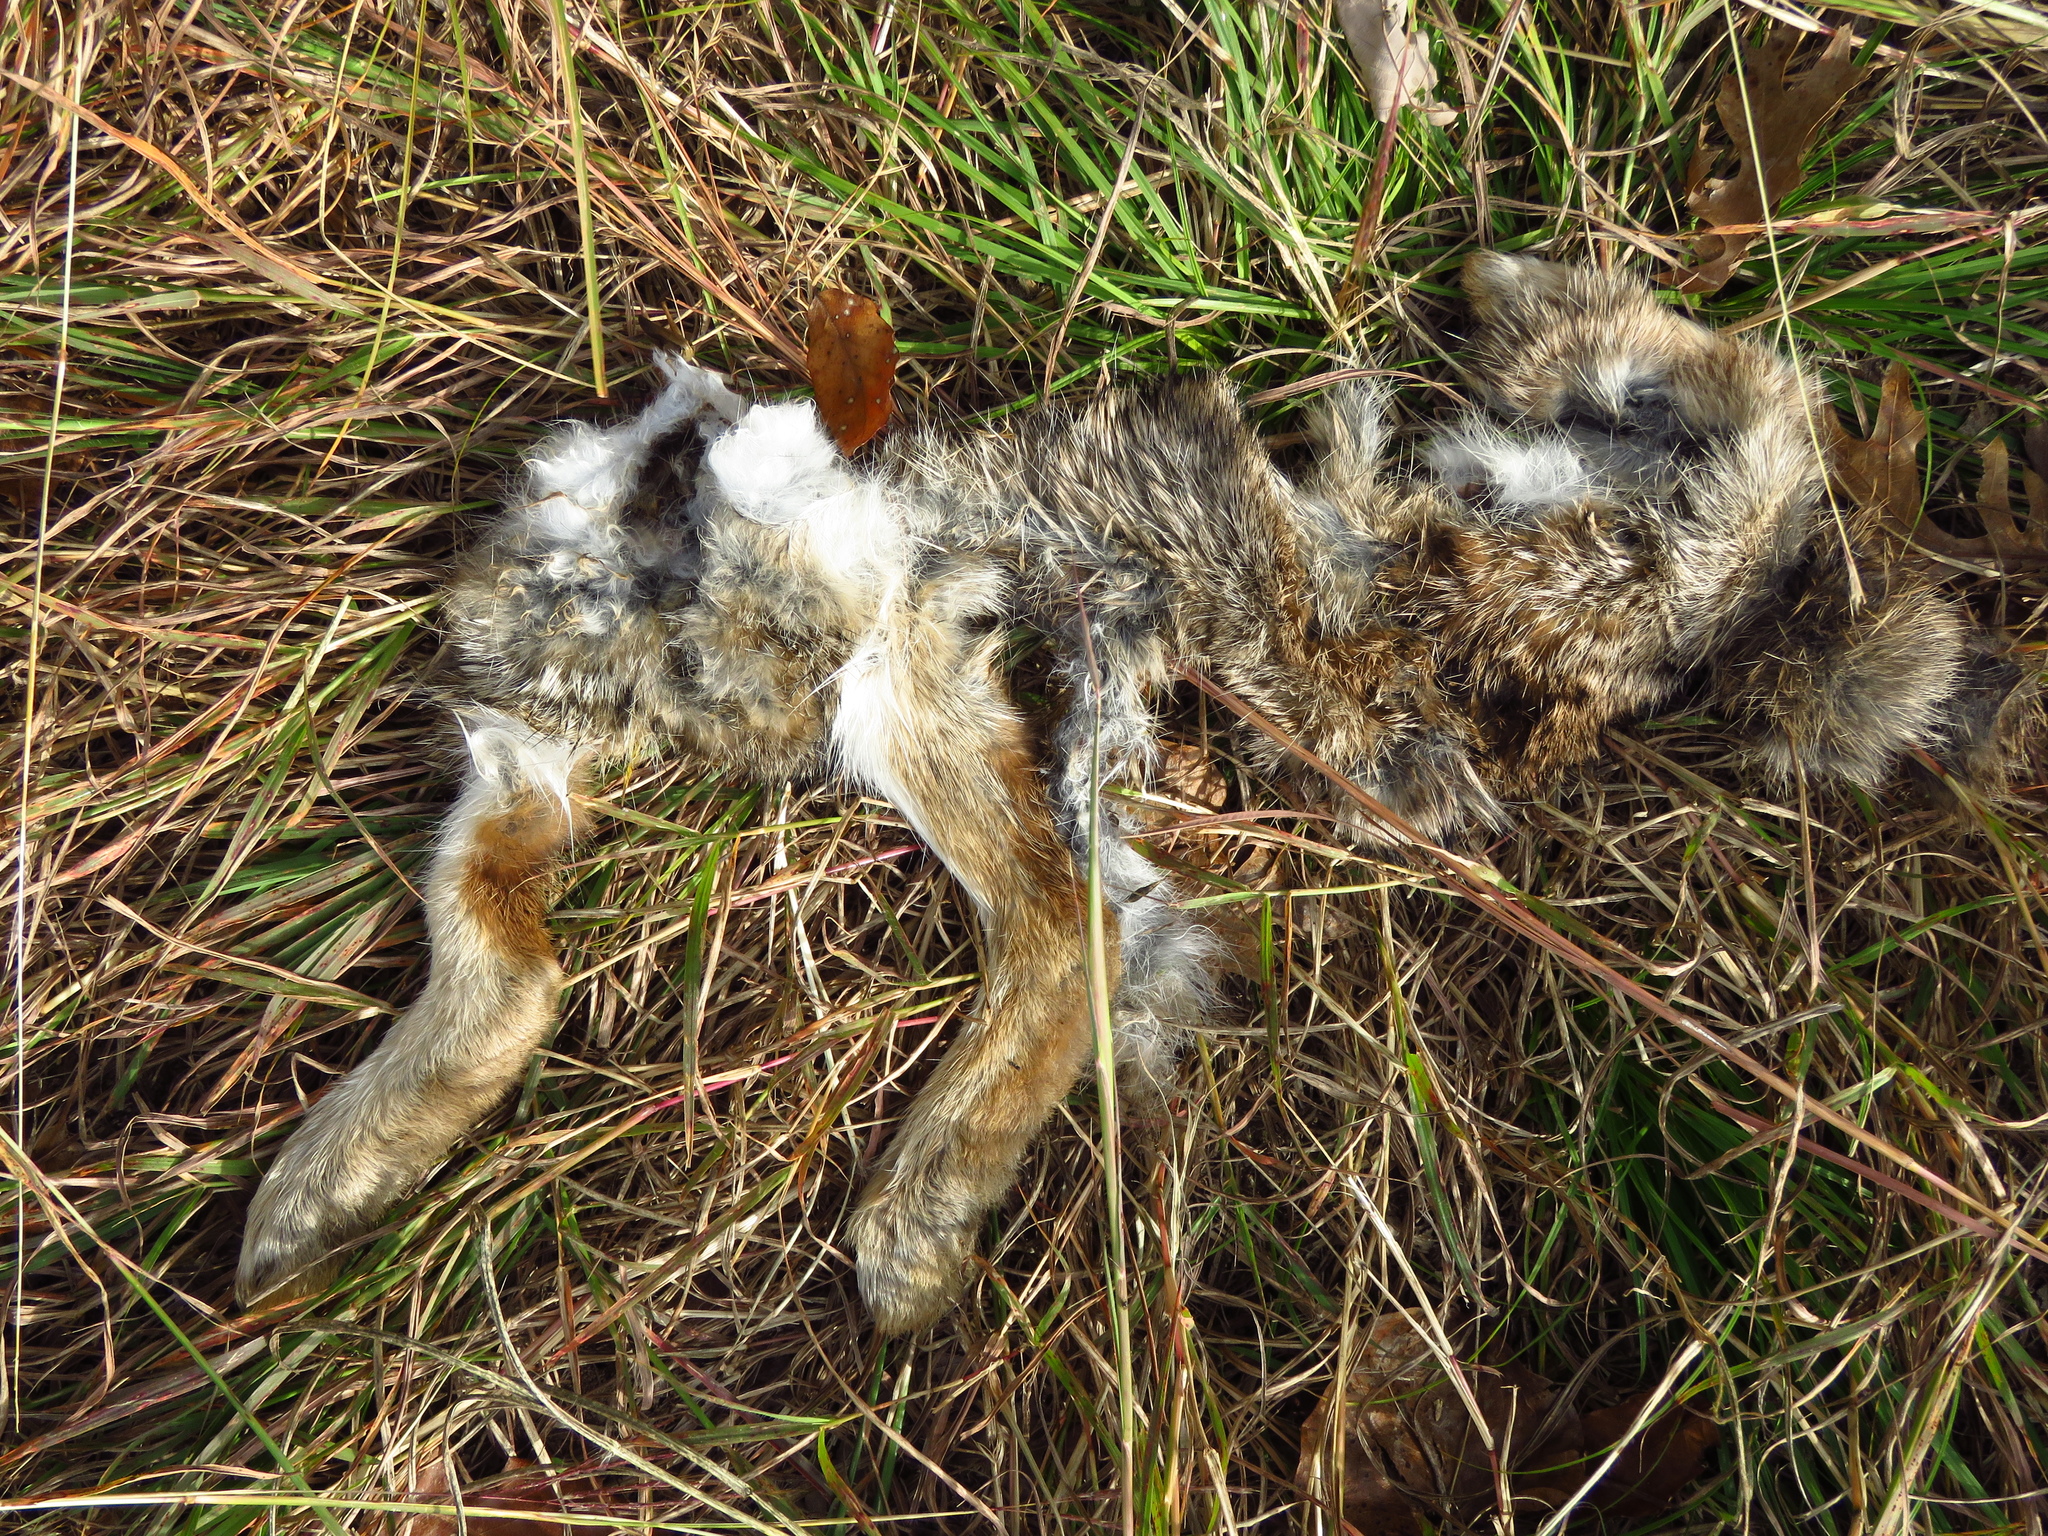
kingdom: Animalia
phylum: Chordata
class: Mammalia
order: Lagomorpha
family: Leporidae
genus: Sylvilagus
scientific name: Sylvilagus floridanus
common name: Eastern cottontail
